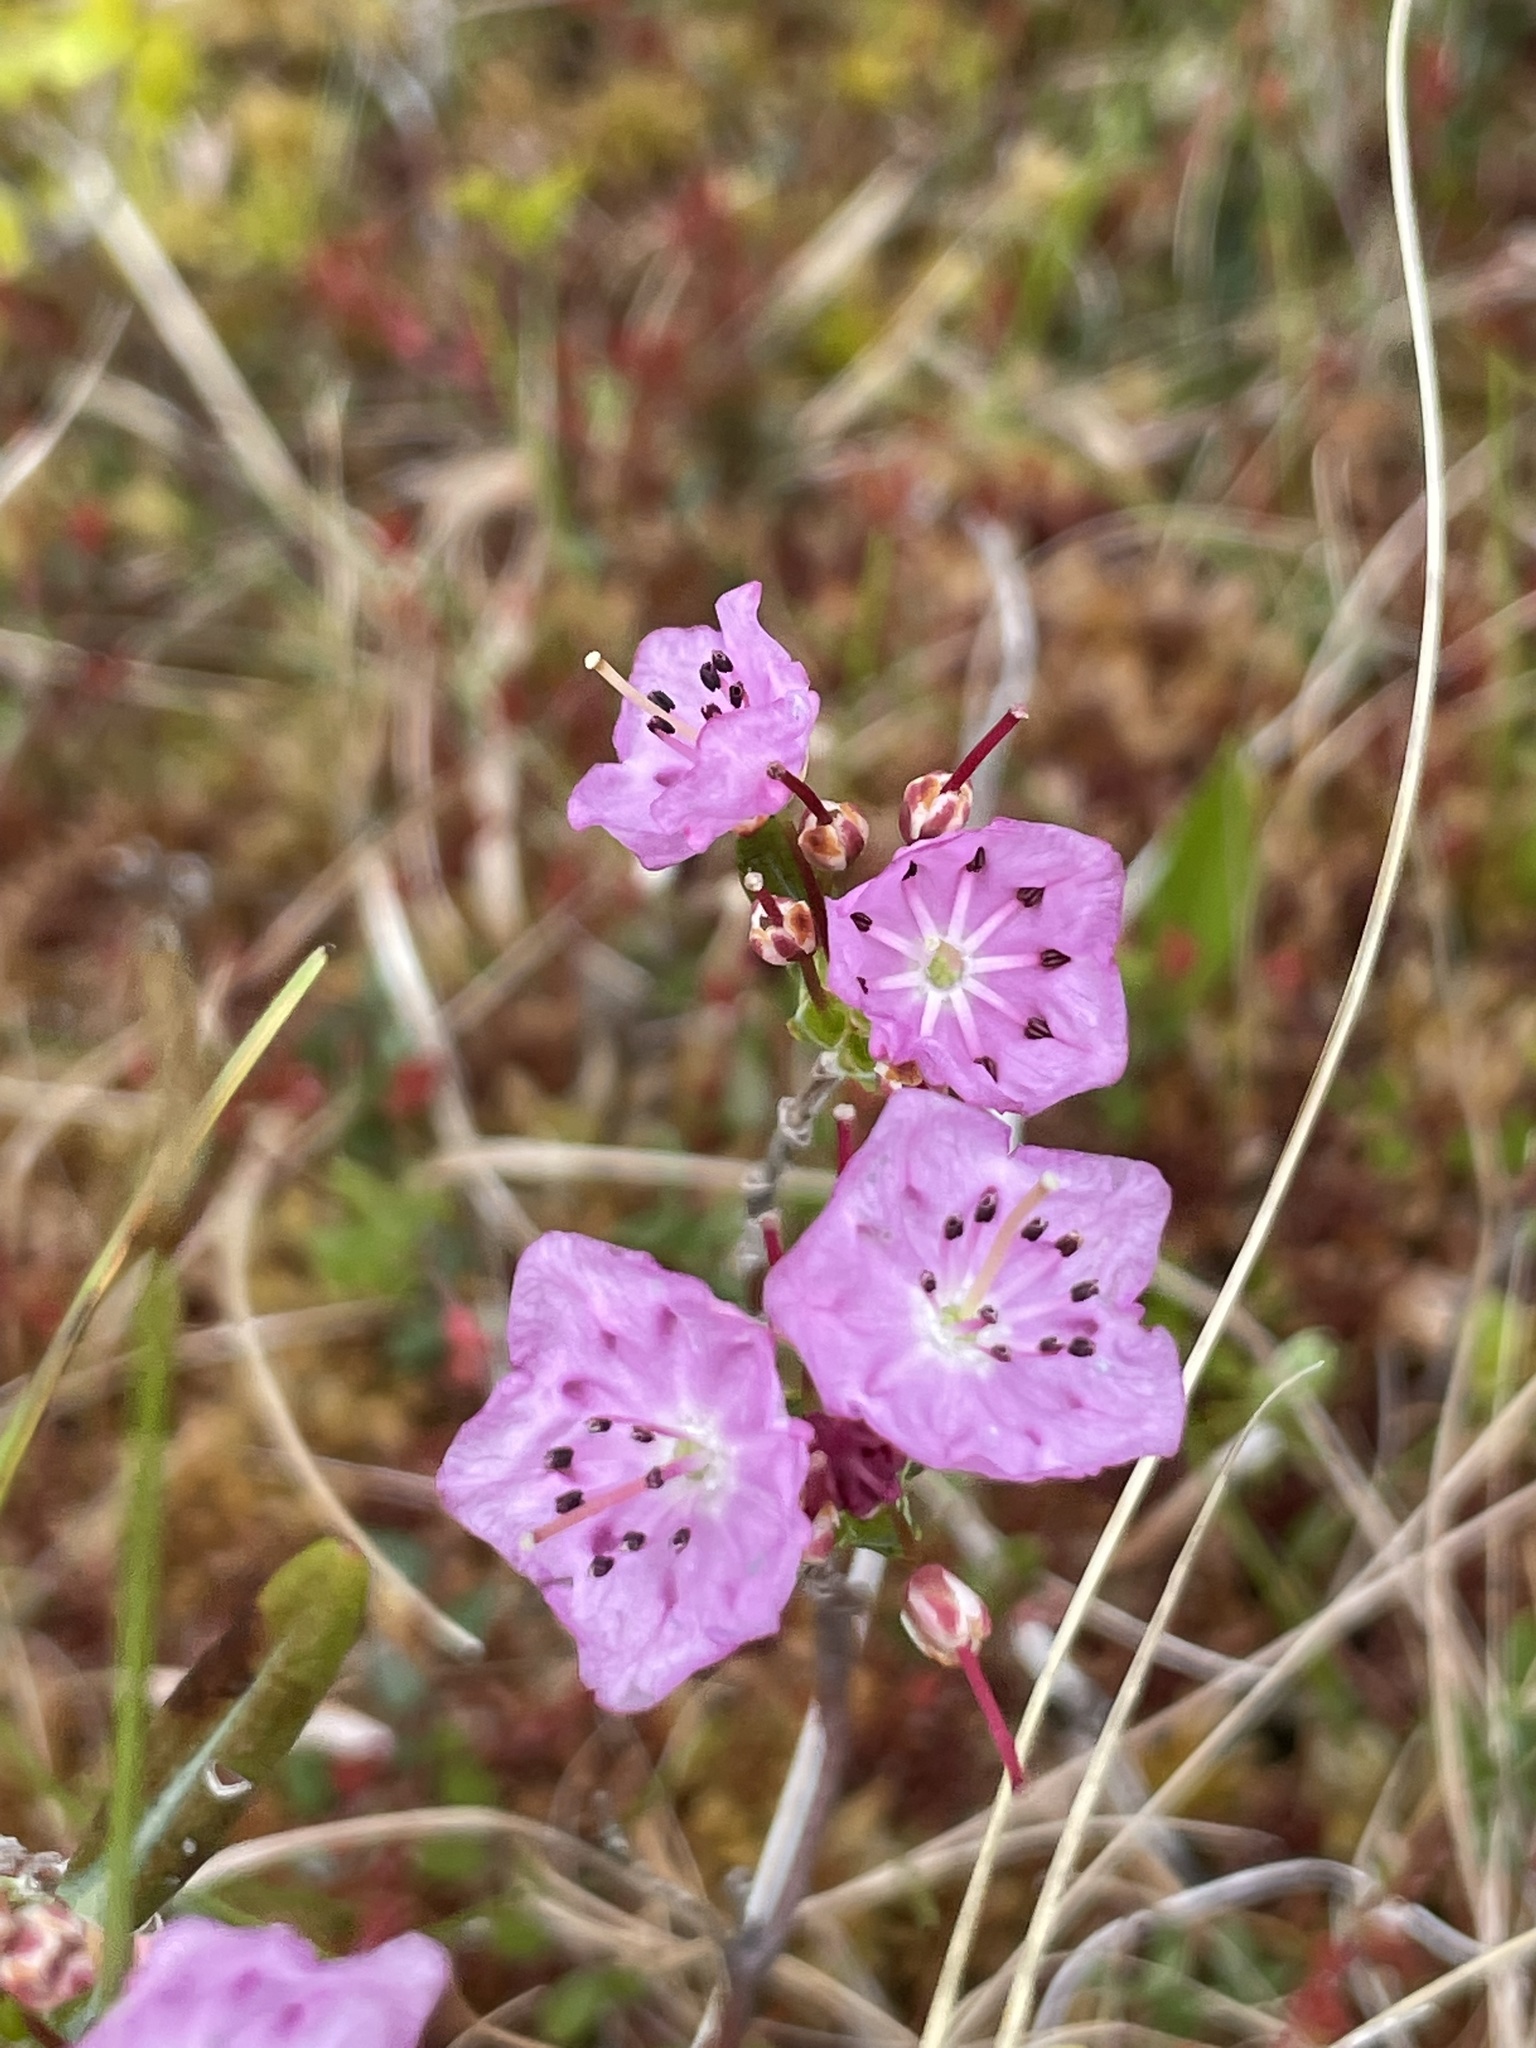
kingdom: Plantae
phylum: Tracheophyta
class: Magnoliopsida
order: Ericales
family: Ericaceae
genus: Kalmia
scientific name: Kalmia polifolia
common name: Bog-laurel
